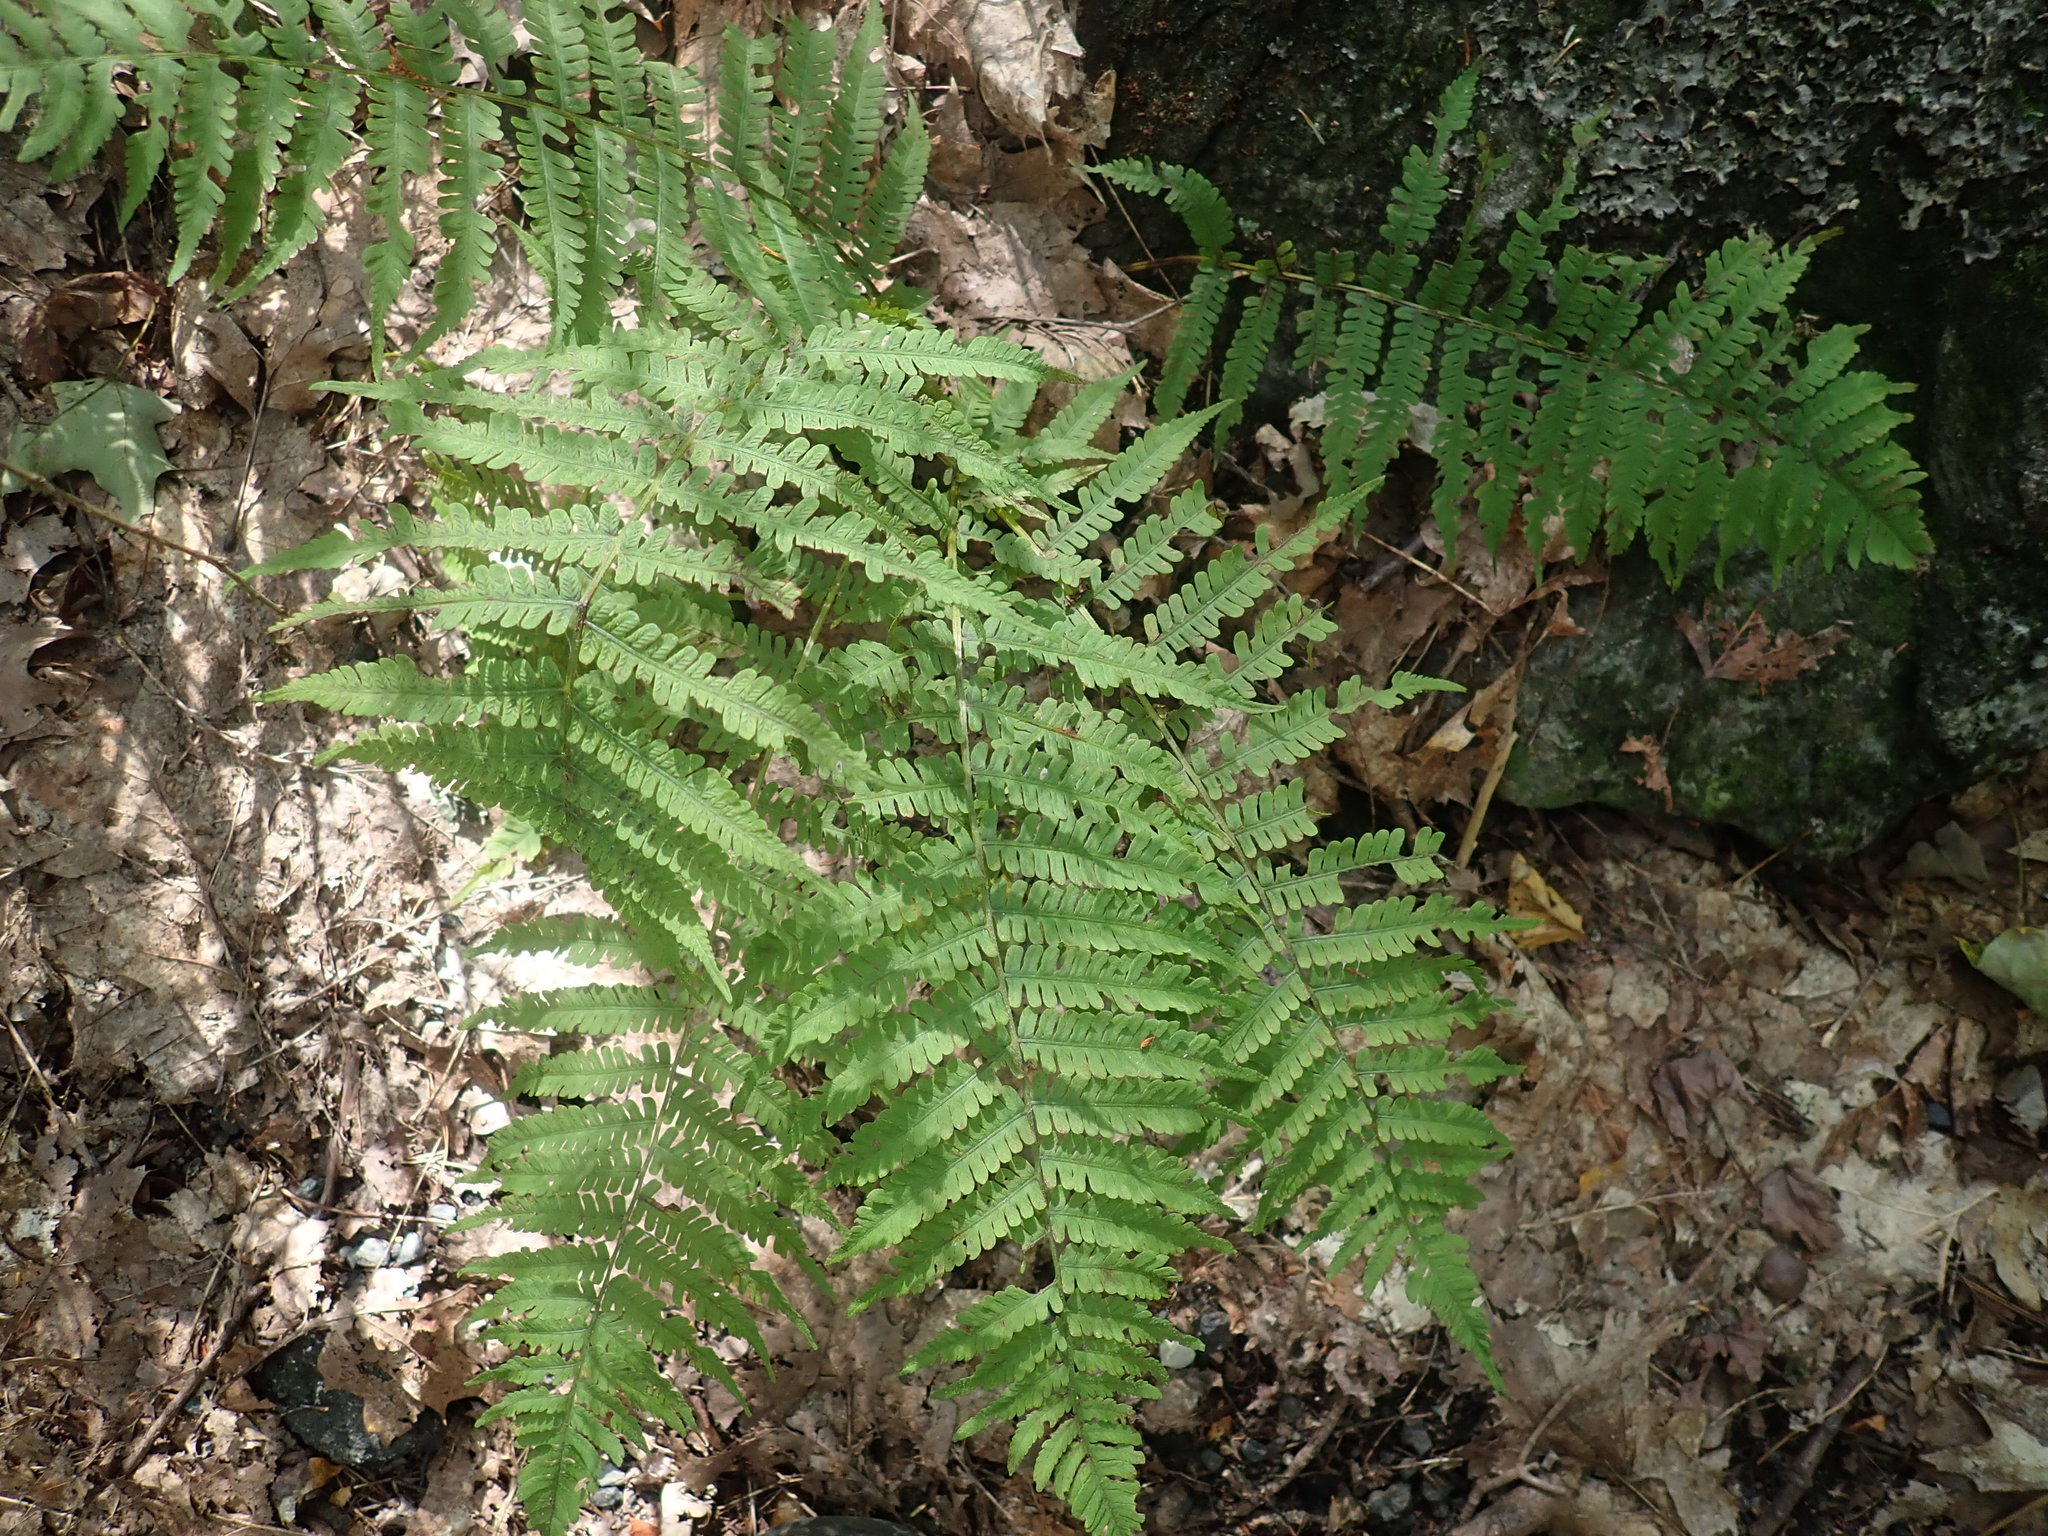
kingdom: Plantae
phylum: Tracheophyta
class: Polypodiopsida
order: Polypodiales
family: Athyriaceae
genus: Deparia
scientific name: Deparia acrostichoides
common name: Silver false spleenwort
